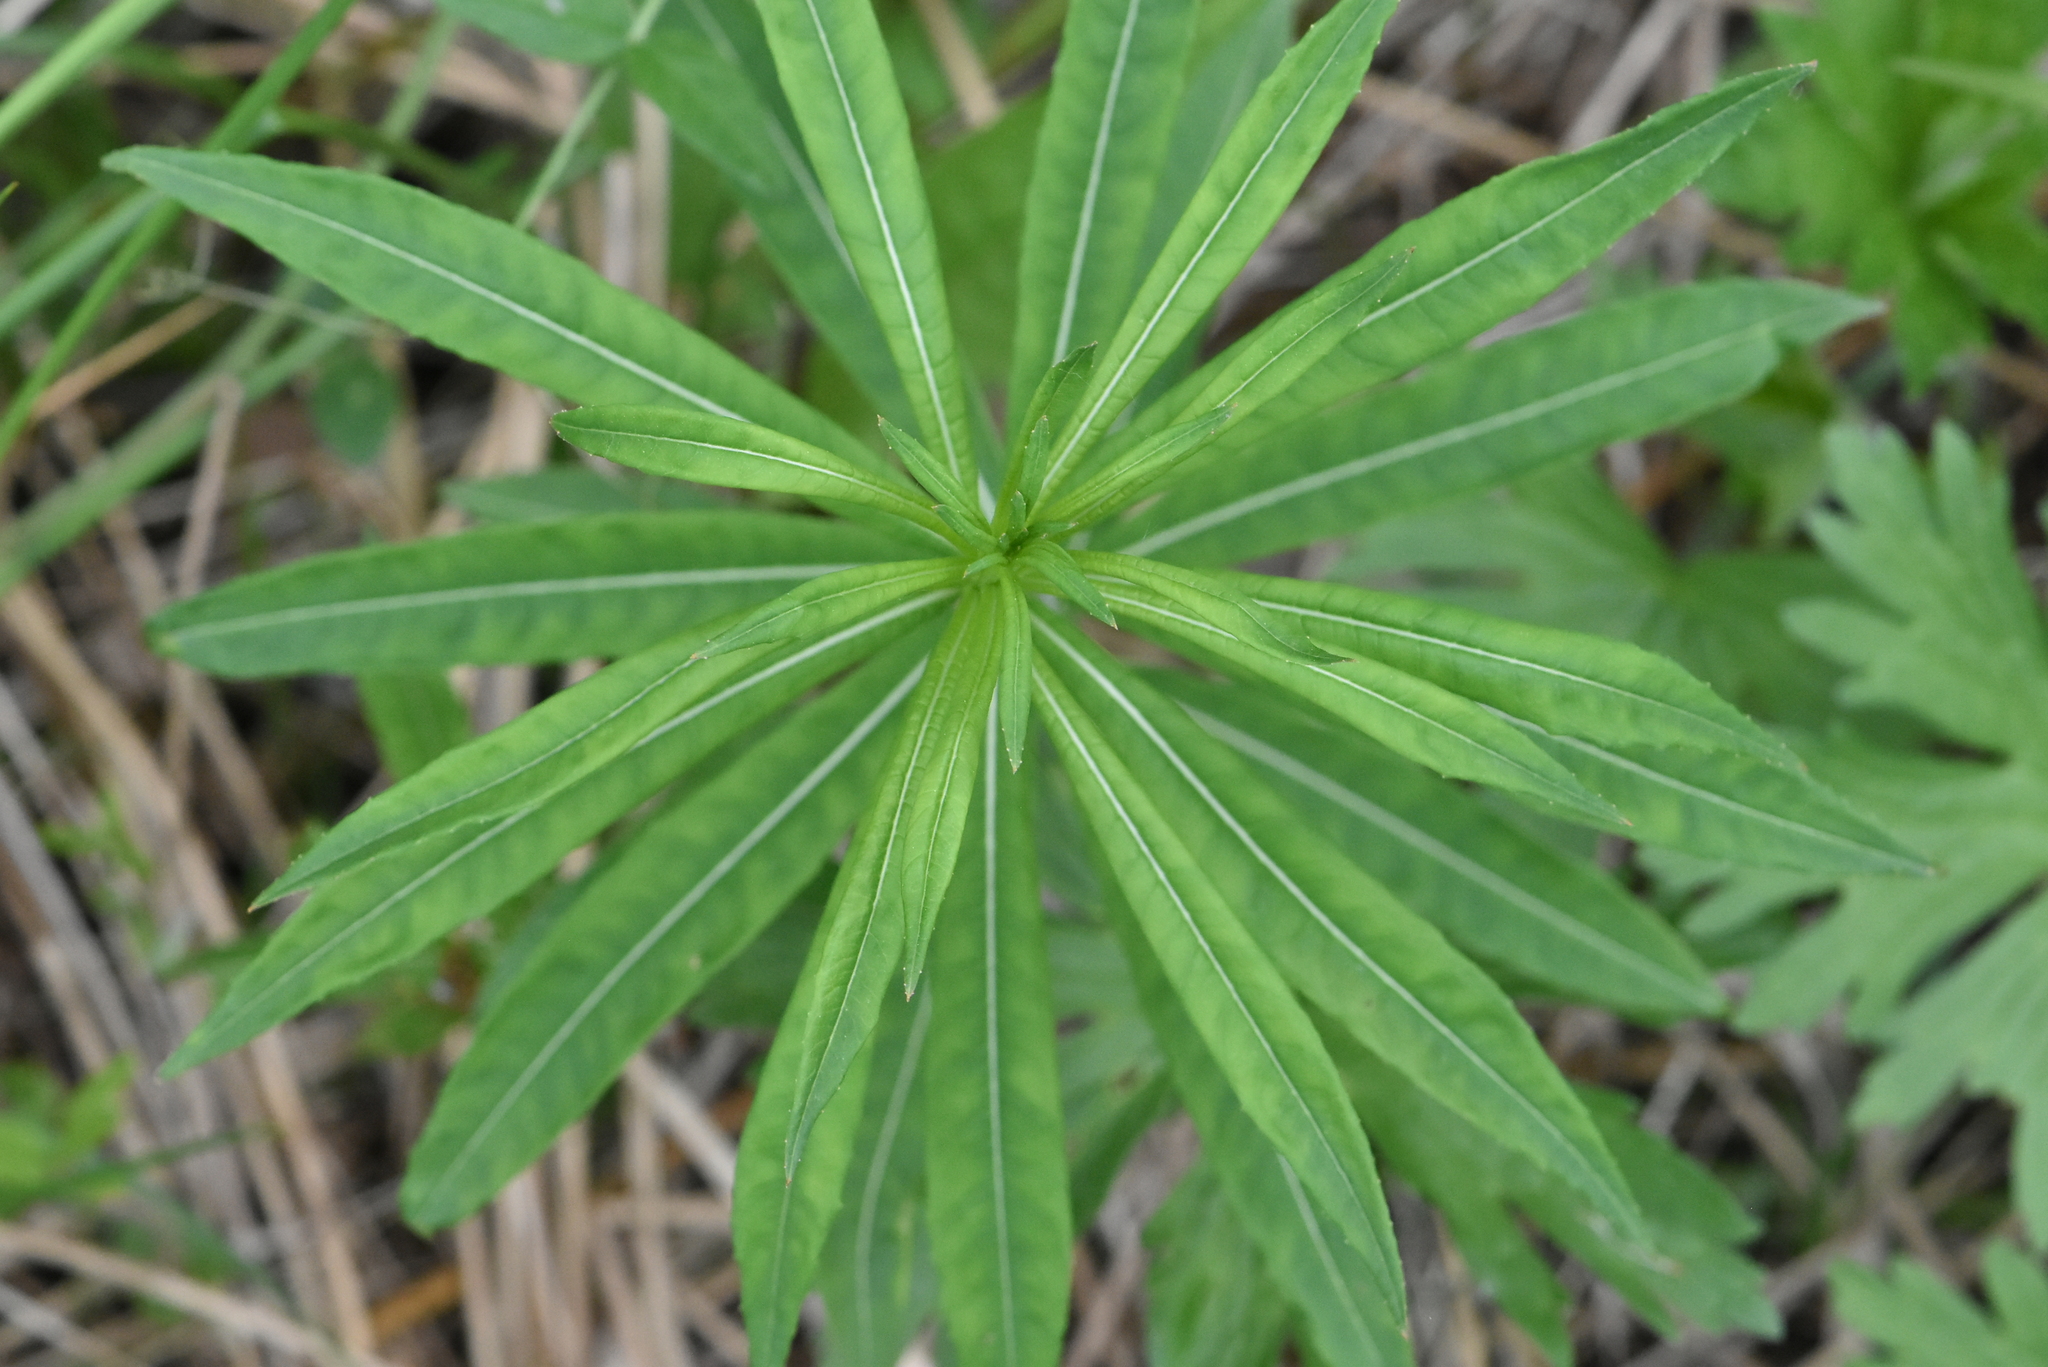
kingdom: Plantae
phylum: Tracheophyta
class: Magnoliopsida
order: Myrtales
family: Onagraceae
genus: Chamaenerion
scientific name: Chamaenerion angustifolium
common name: Fireweed
